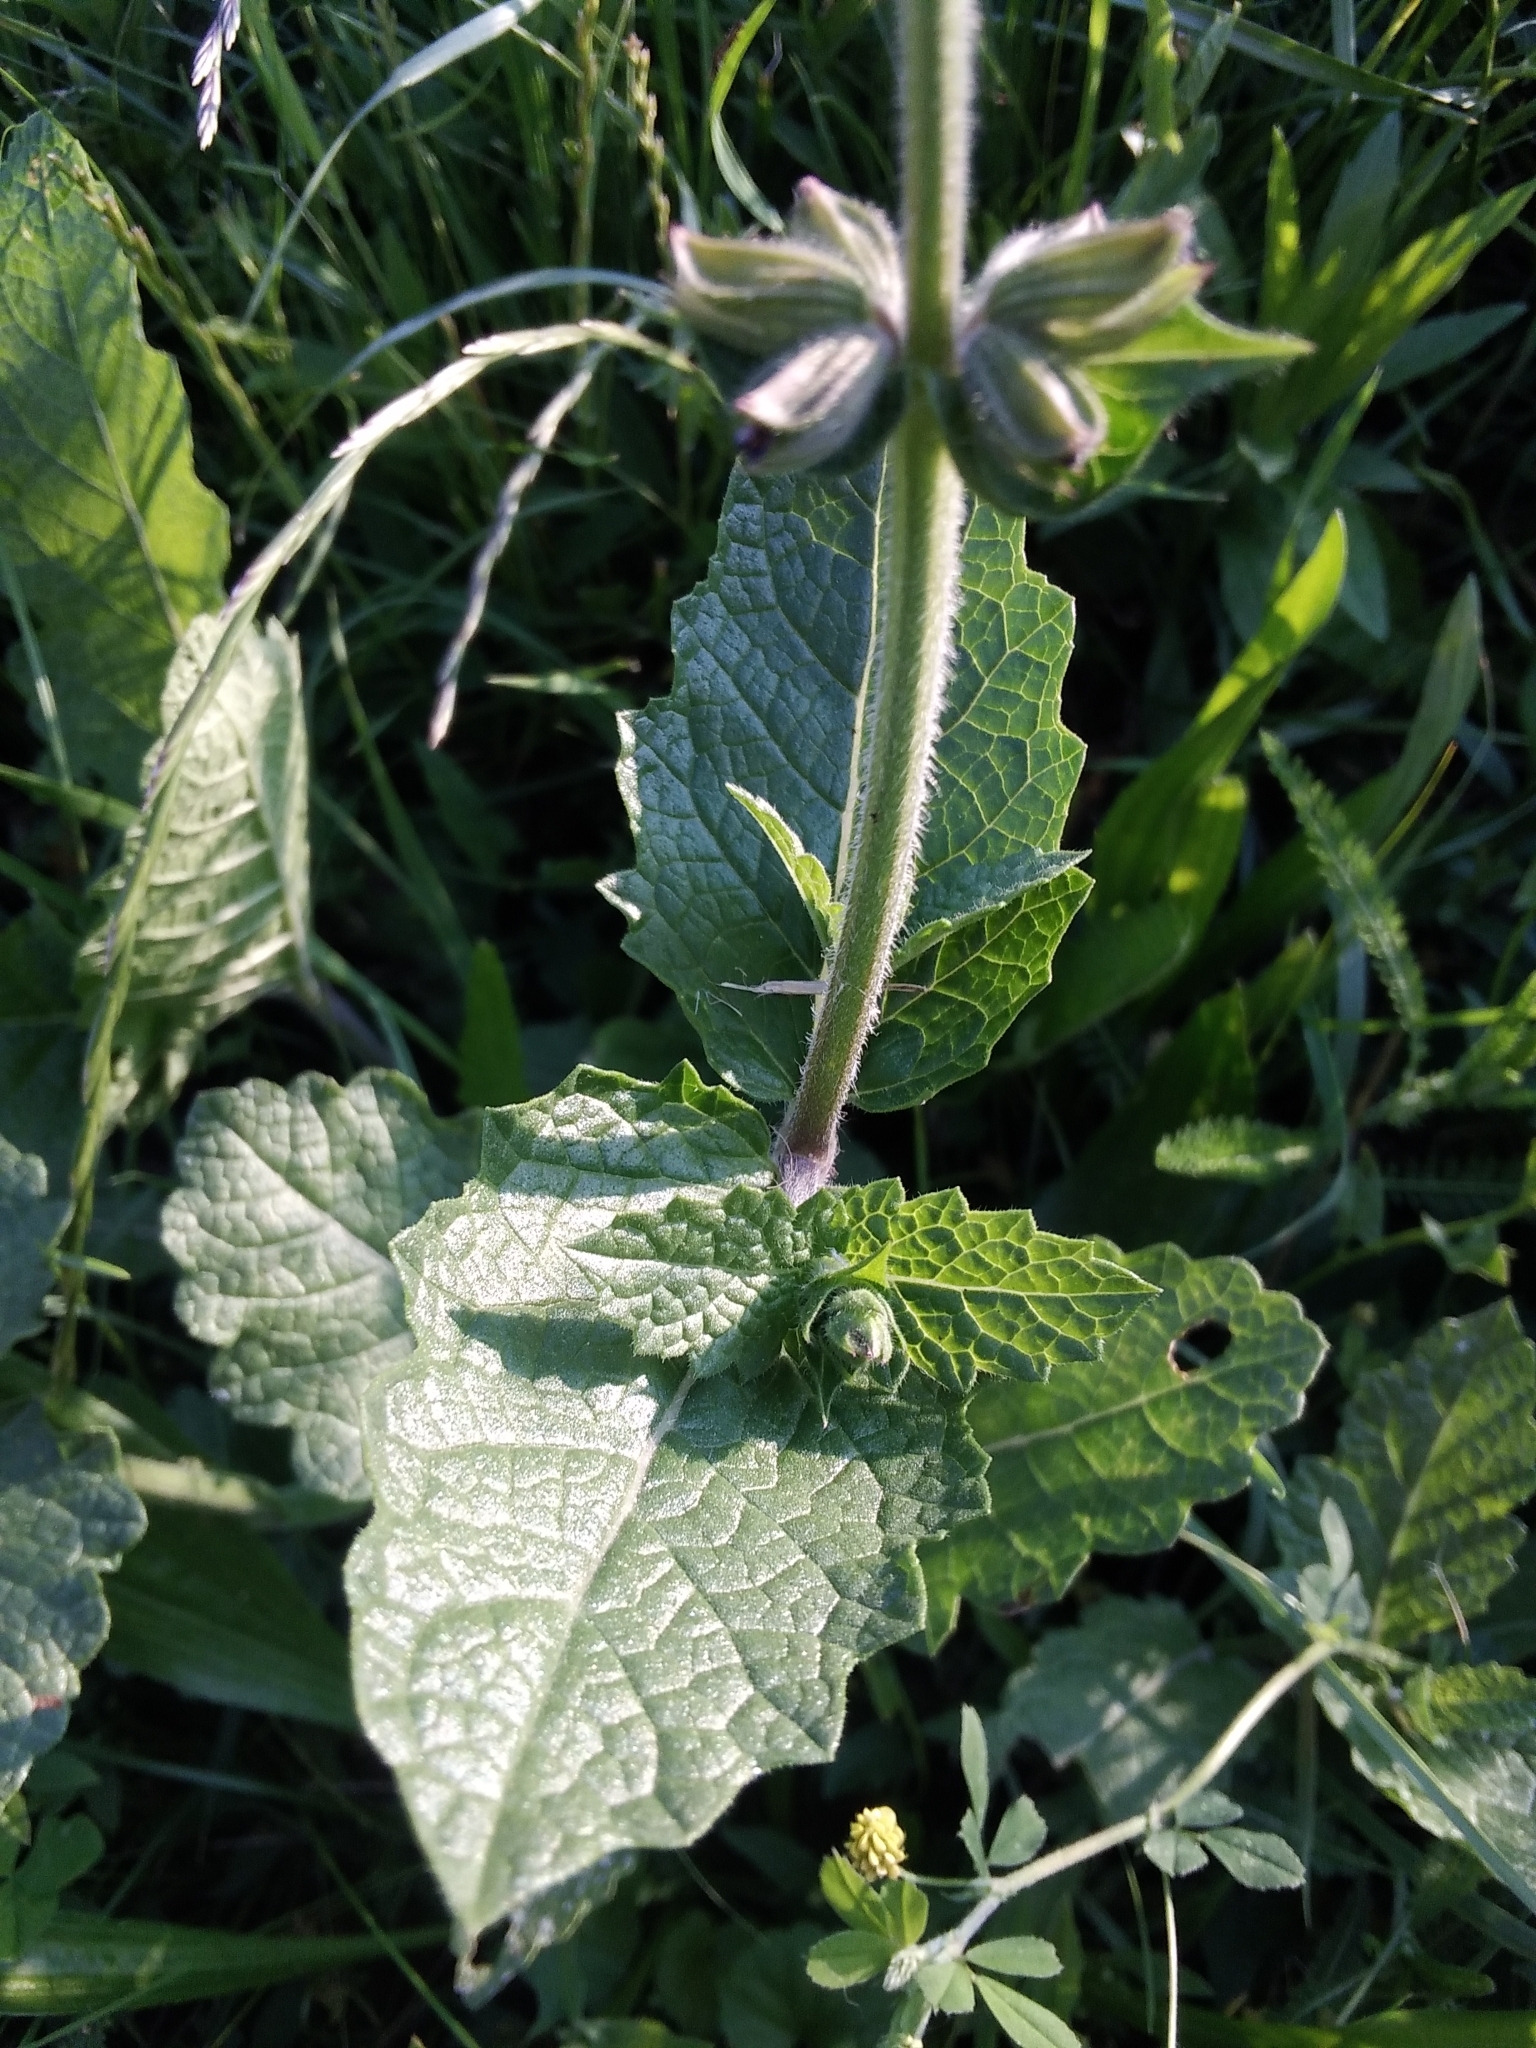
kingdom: Plantae
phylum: Tracheophyta
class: Magnoliopsida
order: Lamiales
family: Lamiaceae
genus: Salvia
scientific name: Salvia verticillata
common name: Whorled clary
